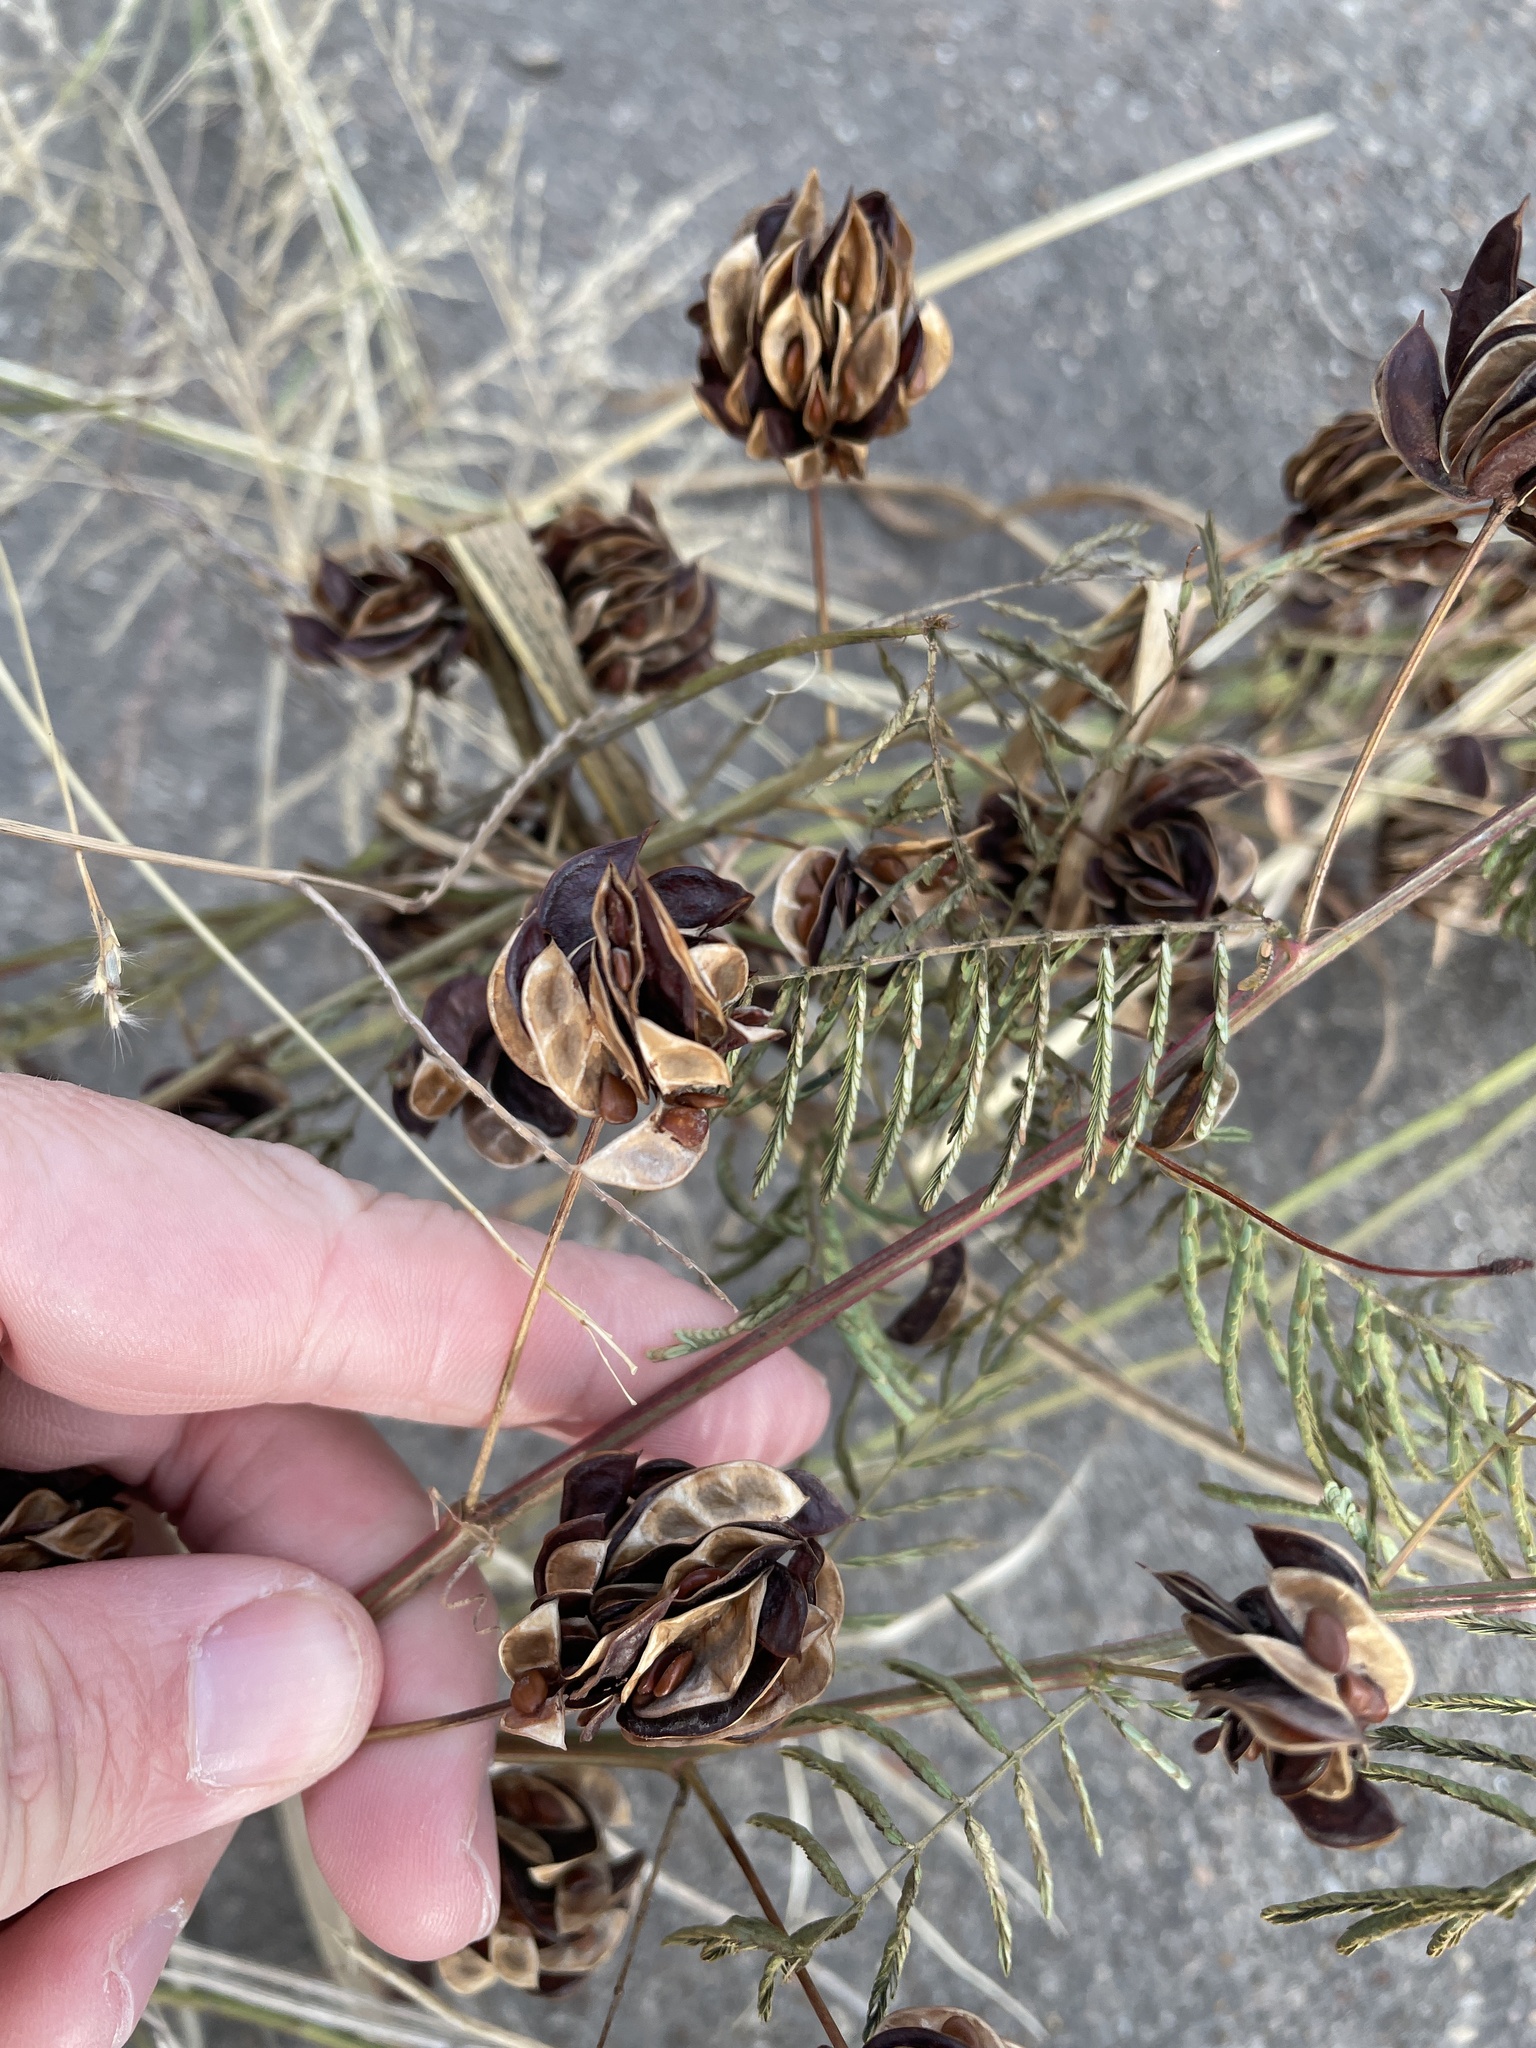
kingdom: Plantae
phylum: Tracheophyta
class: Magnoliopsida
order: Fabales
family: Fabaceae
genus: Desmanthus
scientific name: Desmanthus illinoensis
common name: Illinois bundle-flower
